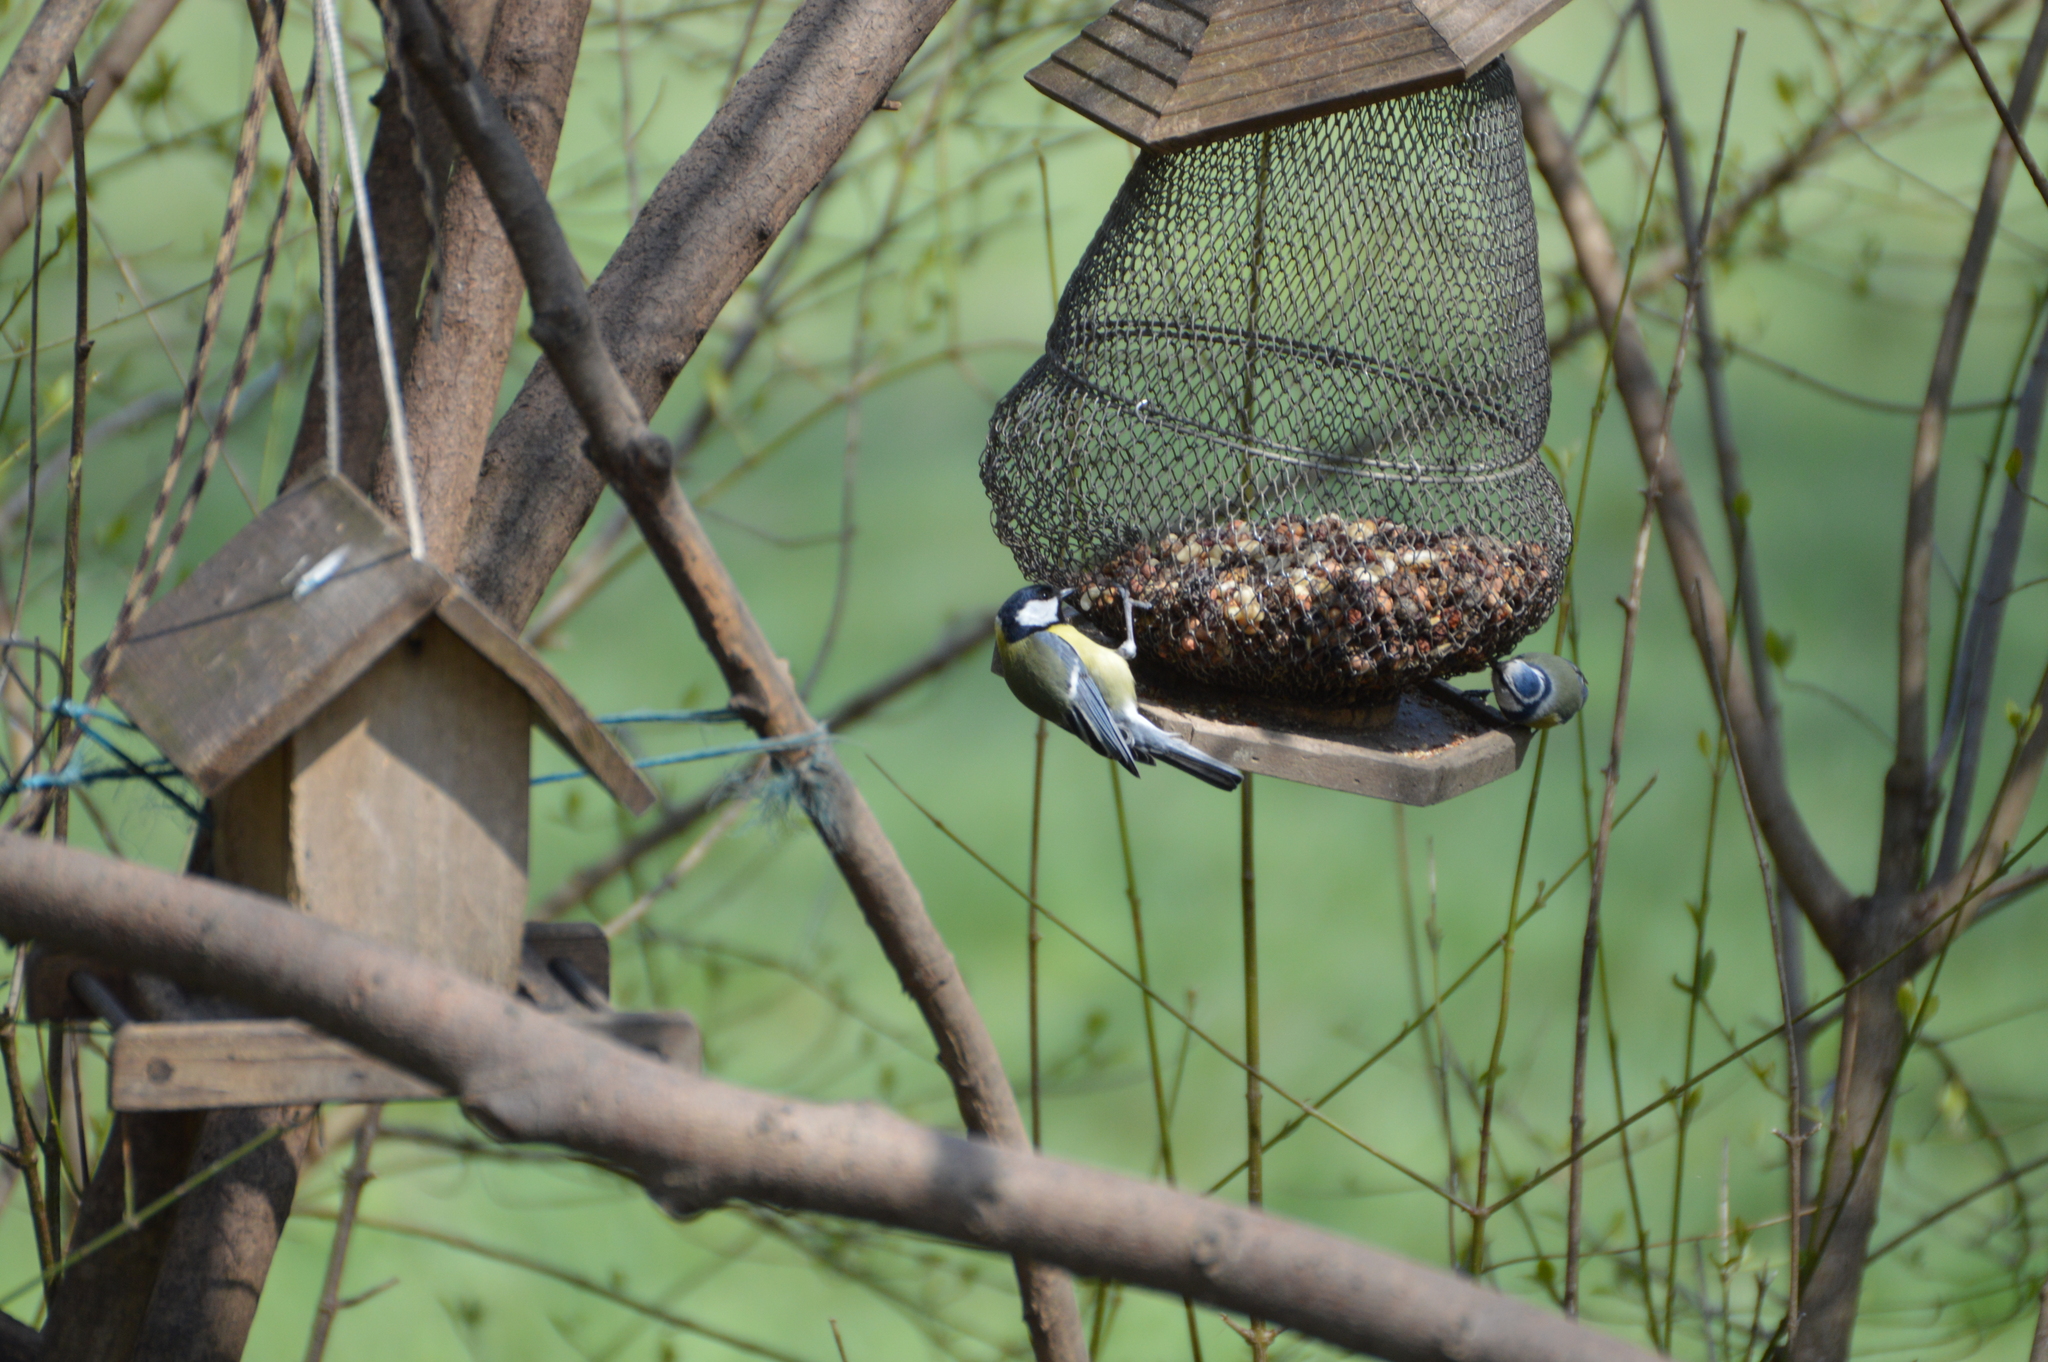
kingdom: Animalia
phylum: Chordata
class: Aves
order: Passeriformes
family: Paridae
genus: Cyanistes
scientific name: Cyanistes caeruleus
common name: Eurasian blue tit
